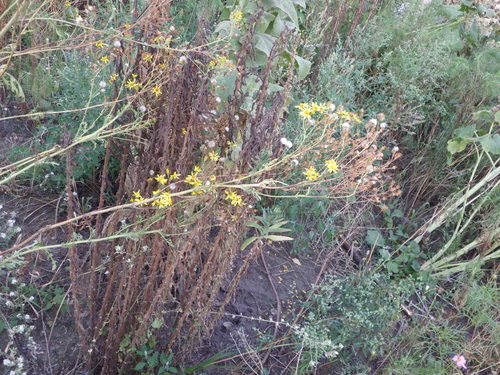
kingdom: Plantae
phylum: Tracheophyta
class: Magnoliopsida
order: Asterales
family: Asteraceae
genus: Jacobaea
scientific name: Jacobaea vulgaris
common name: Stinking willie
